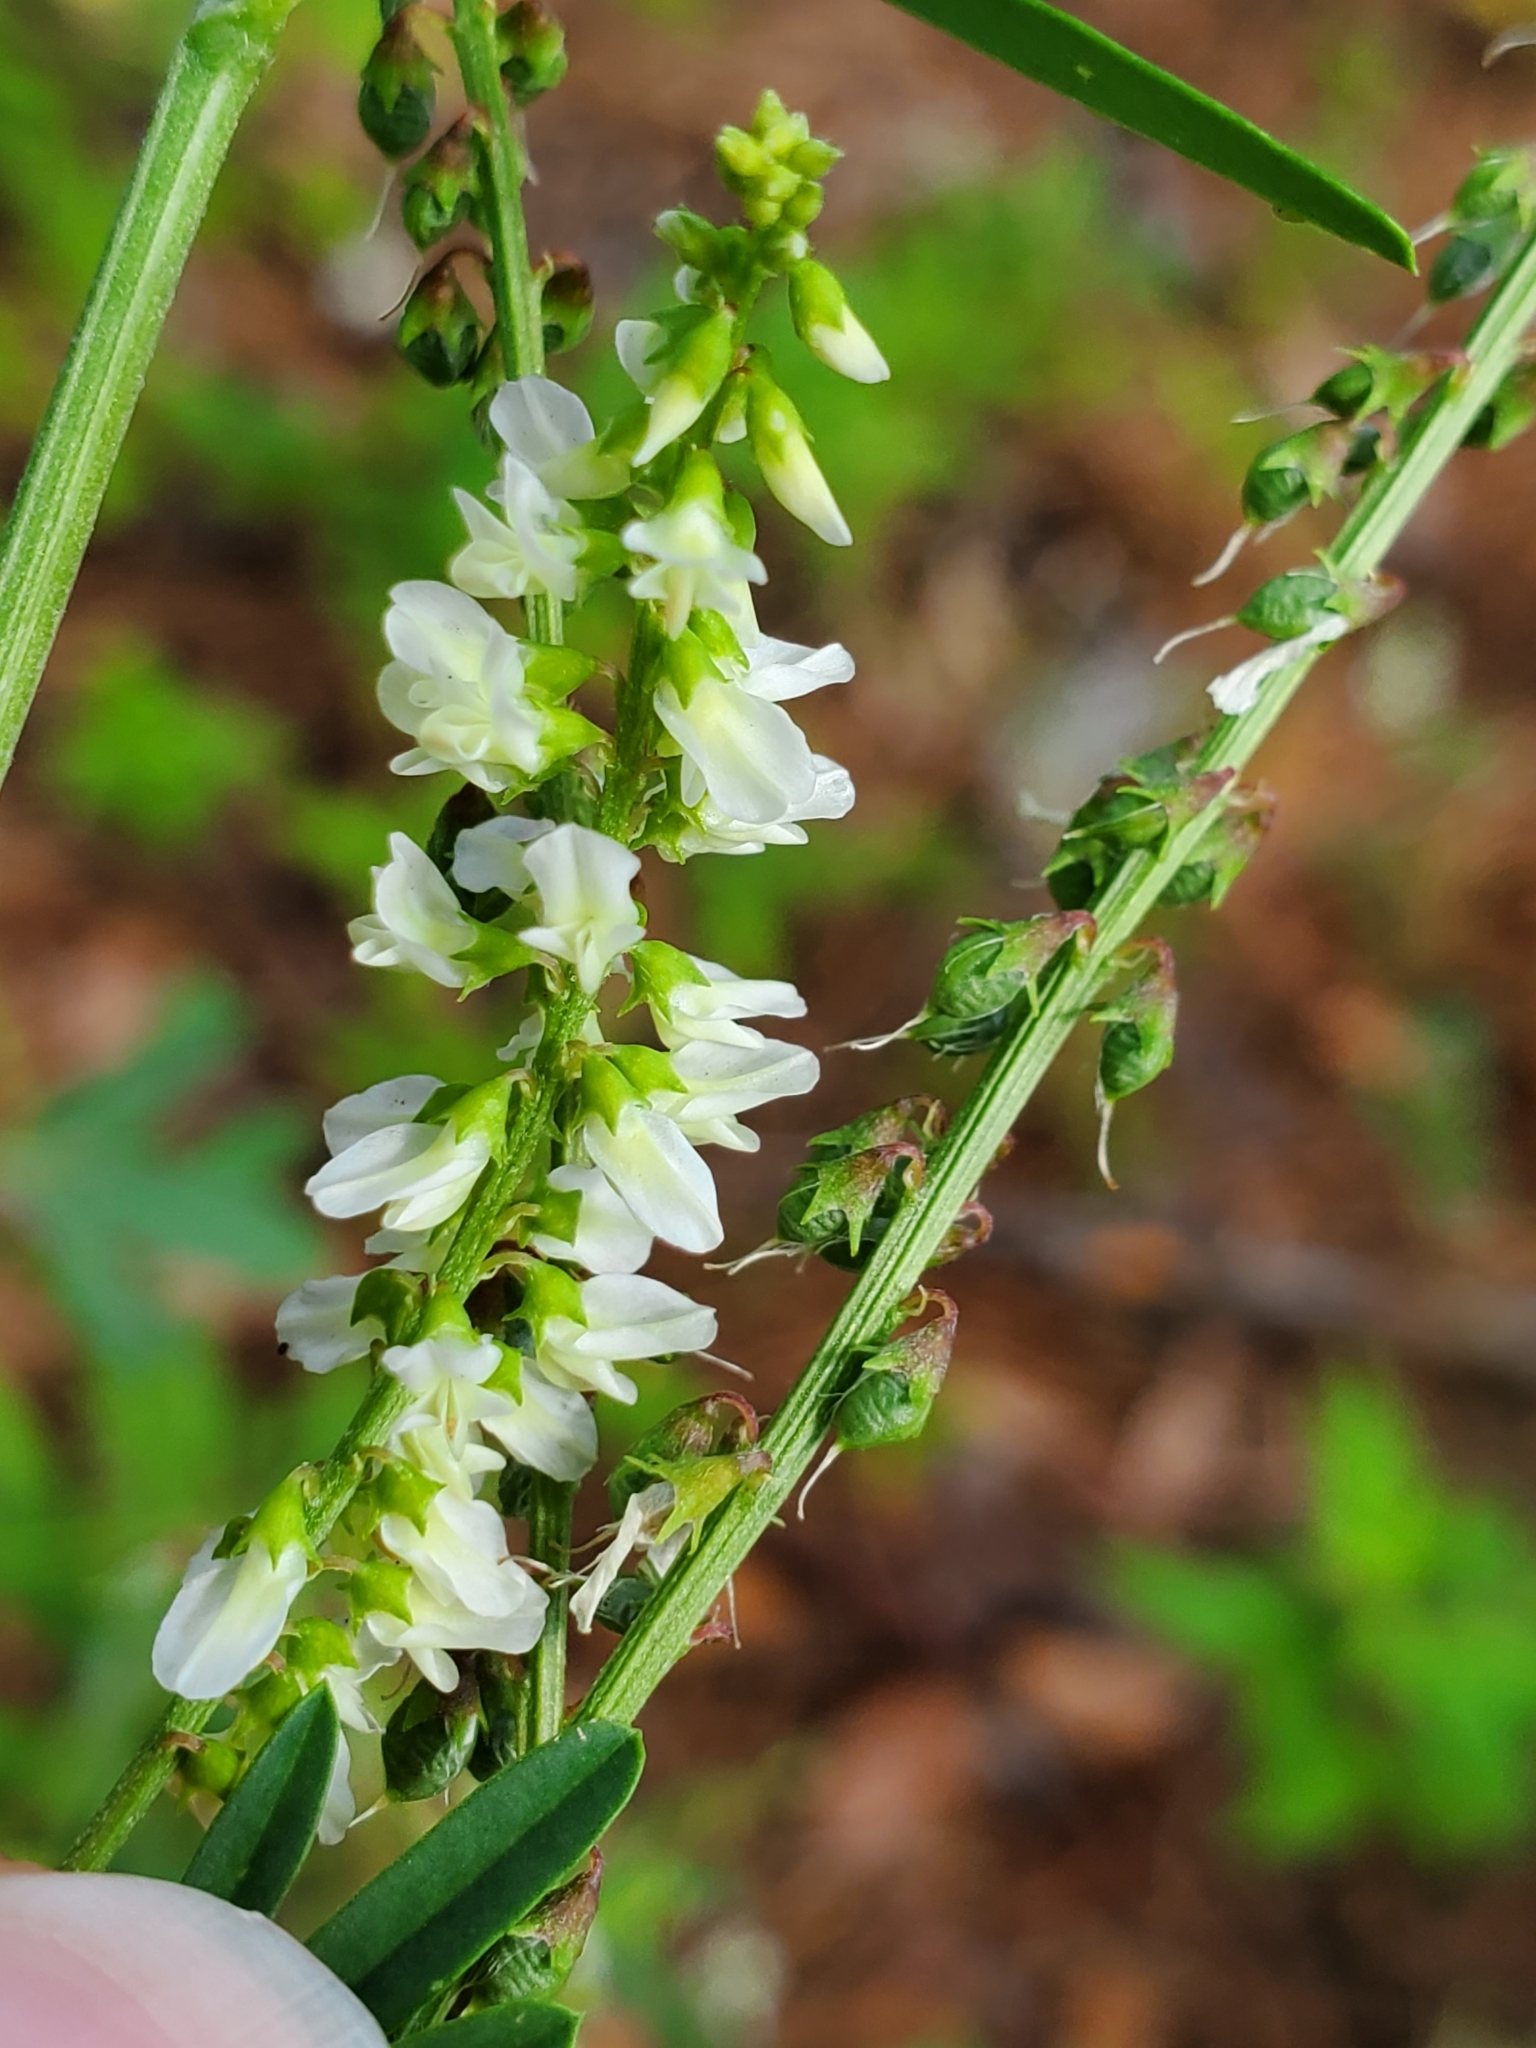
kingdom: Plantae
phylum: Tracheophyta
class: Magnoliopsida
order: Fabales
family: Fabaceae
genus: Melilotus
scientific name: Melilotus albus
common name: White melilot
